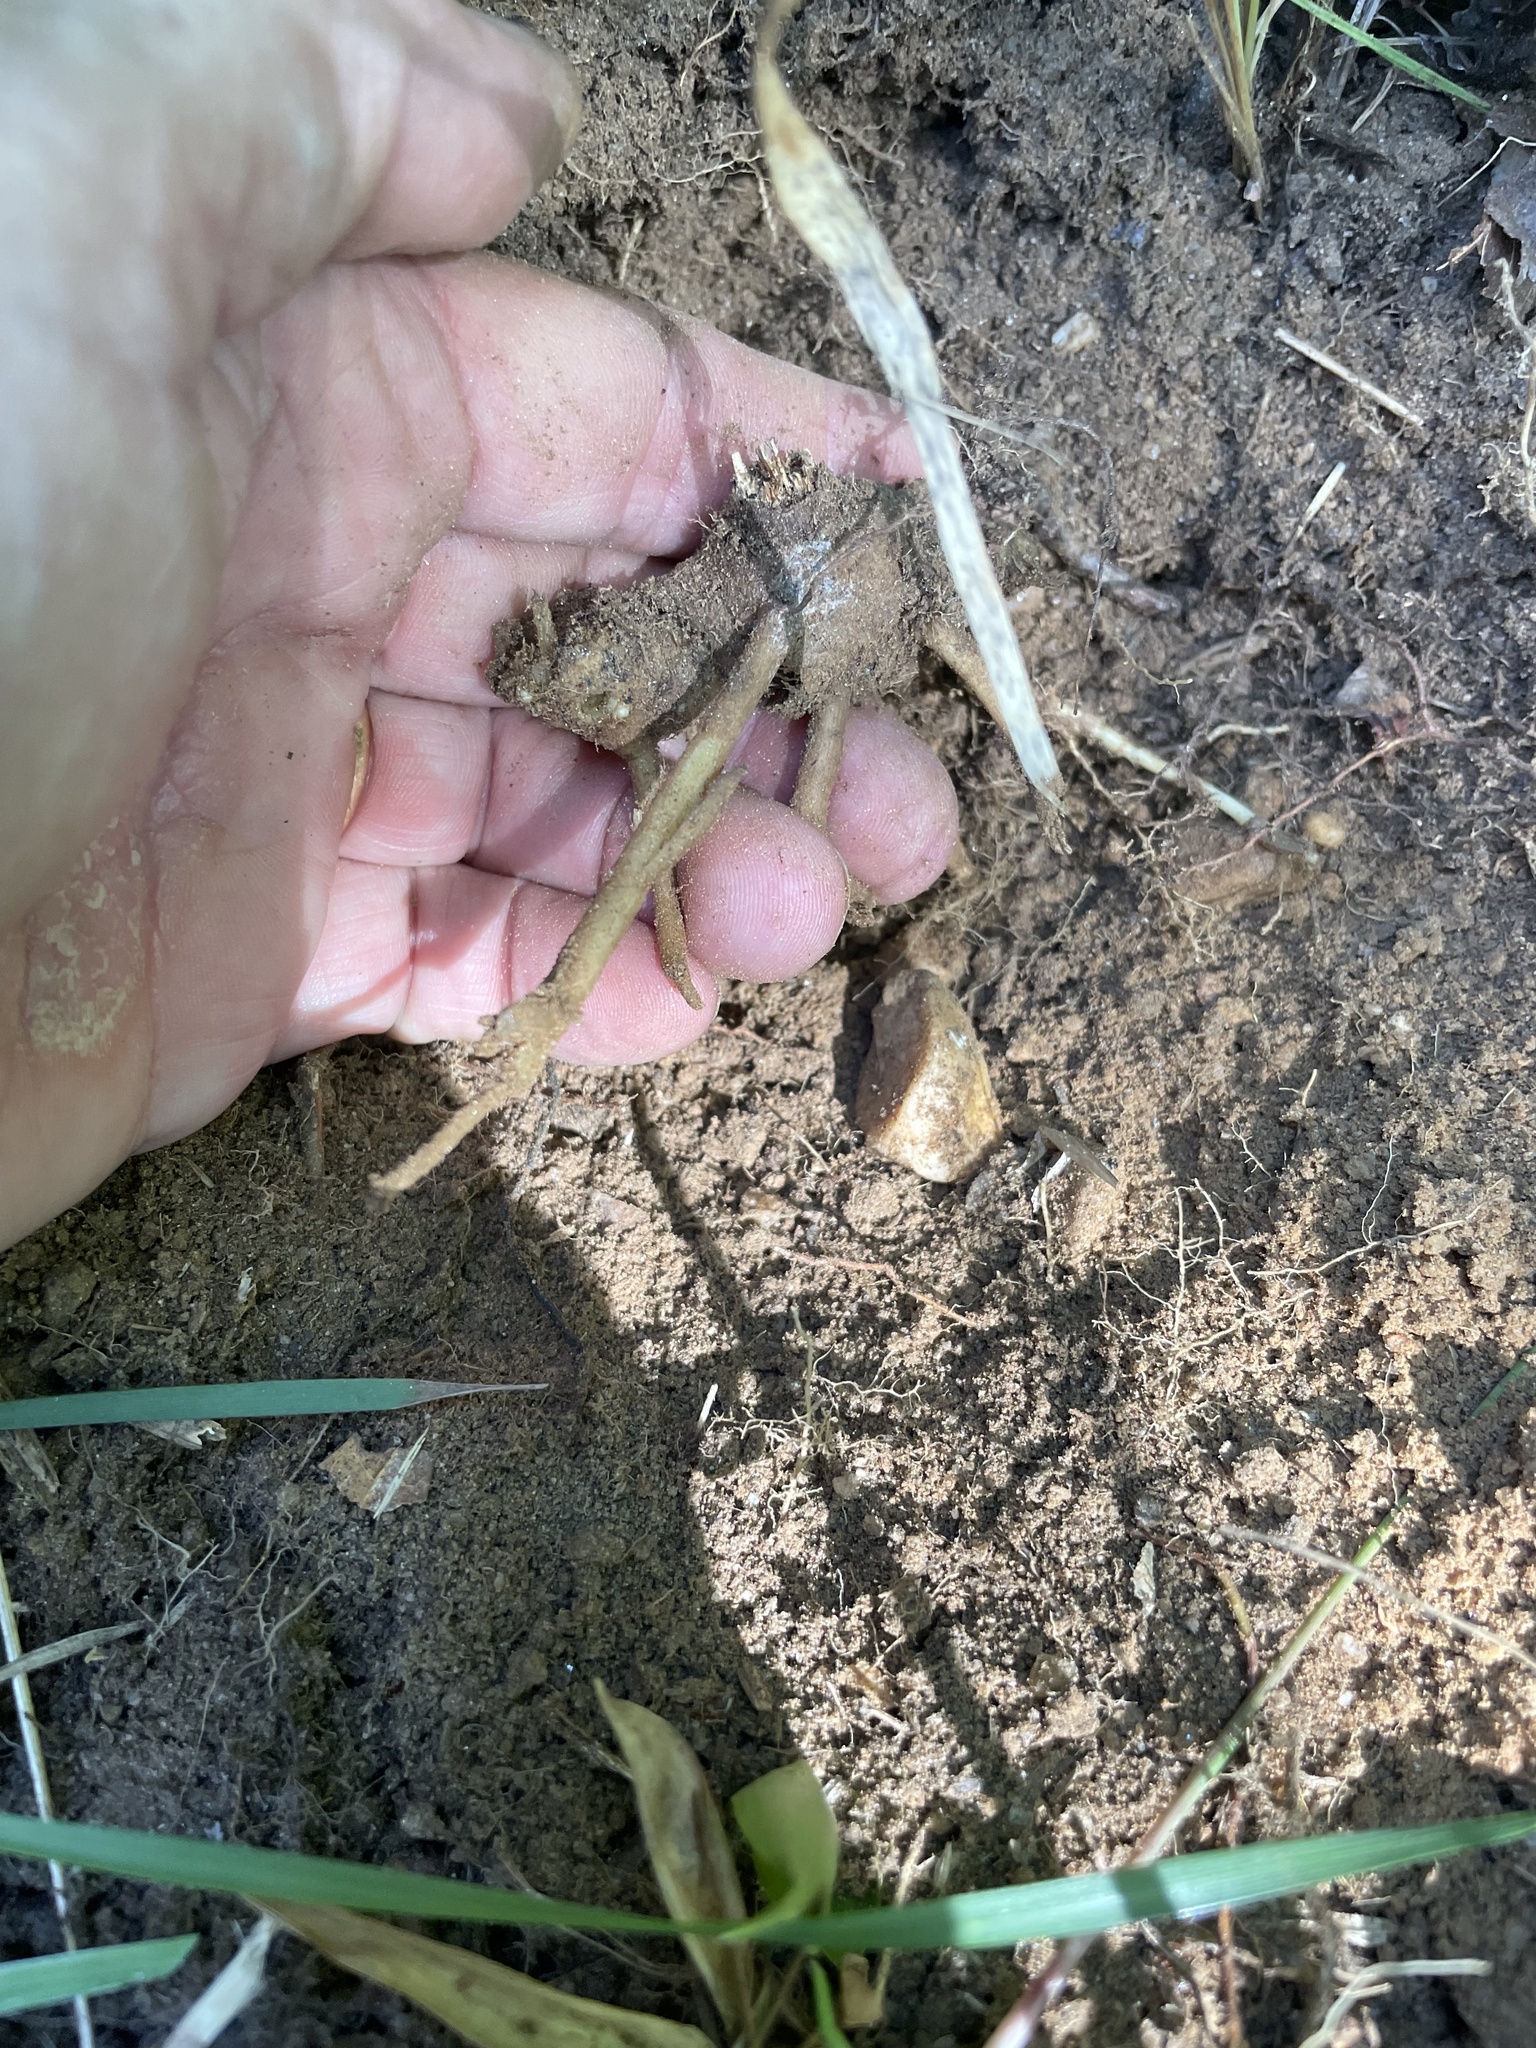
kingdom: Plantae
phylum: Tracheophyta
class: Magnoliopsida
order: Asterales
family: Asteraceae
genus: Helianthus
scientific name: Helianthus tuberosus
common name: Jerusalem artichoke
